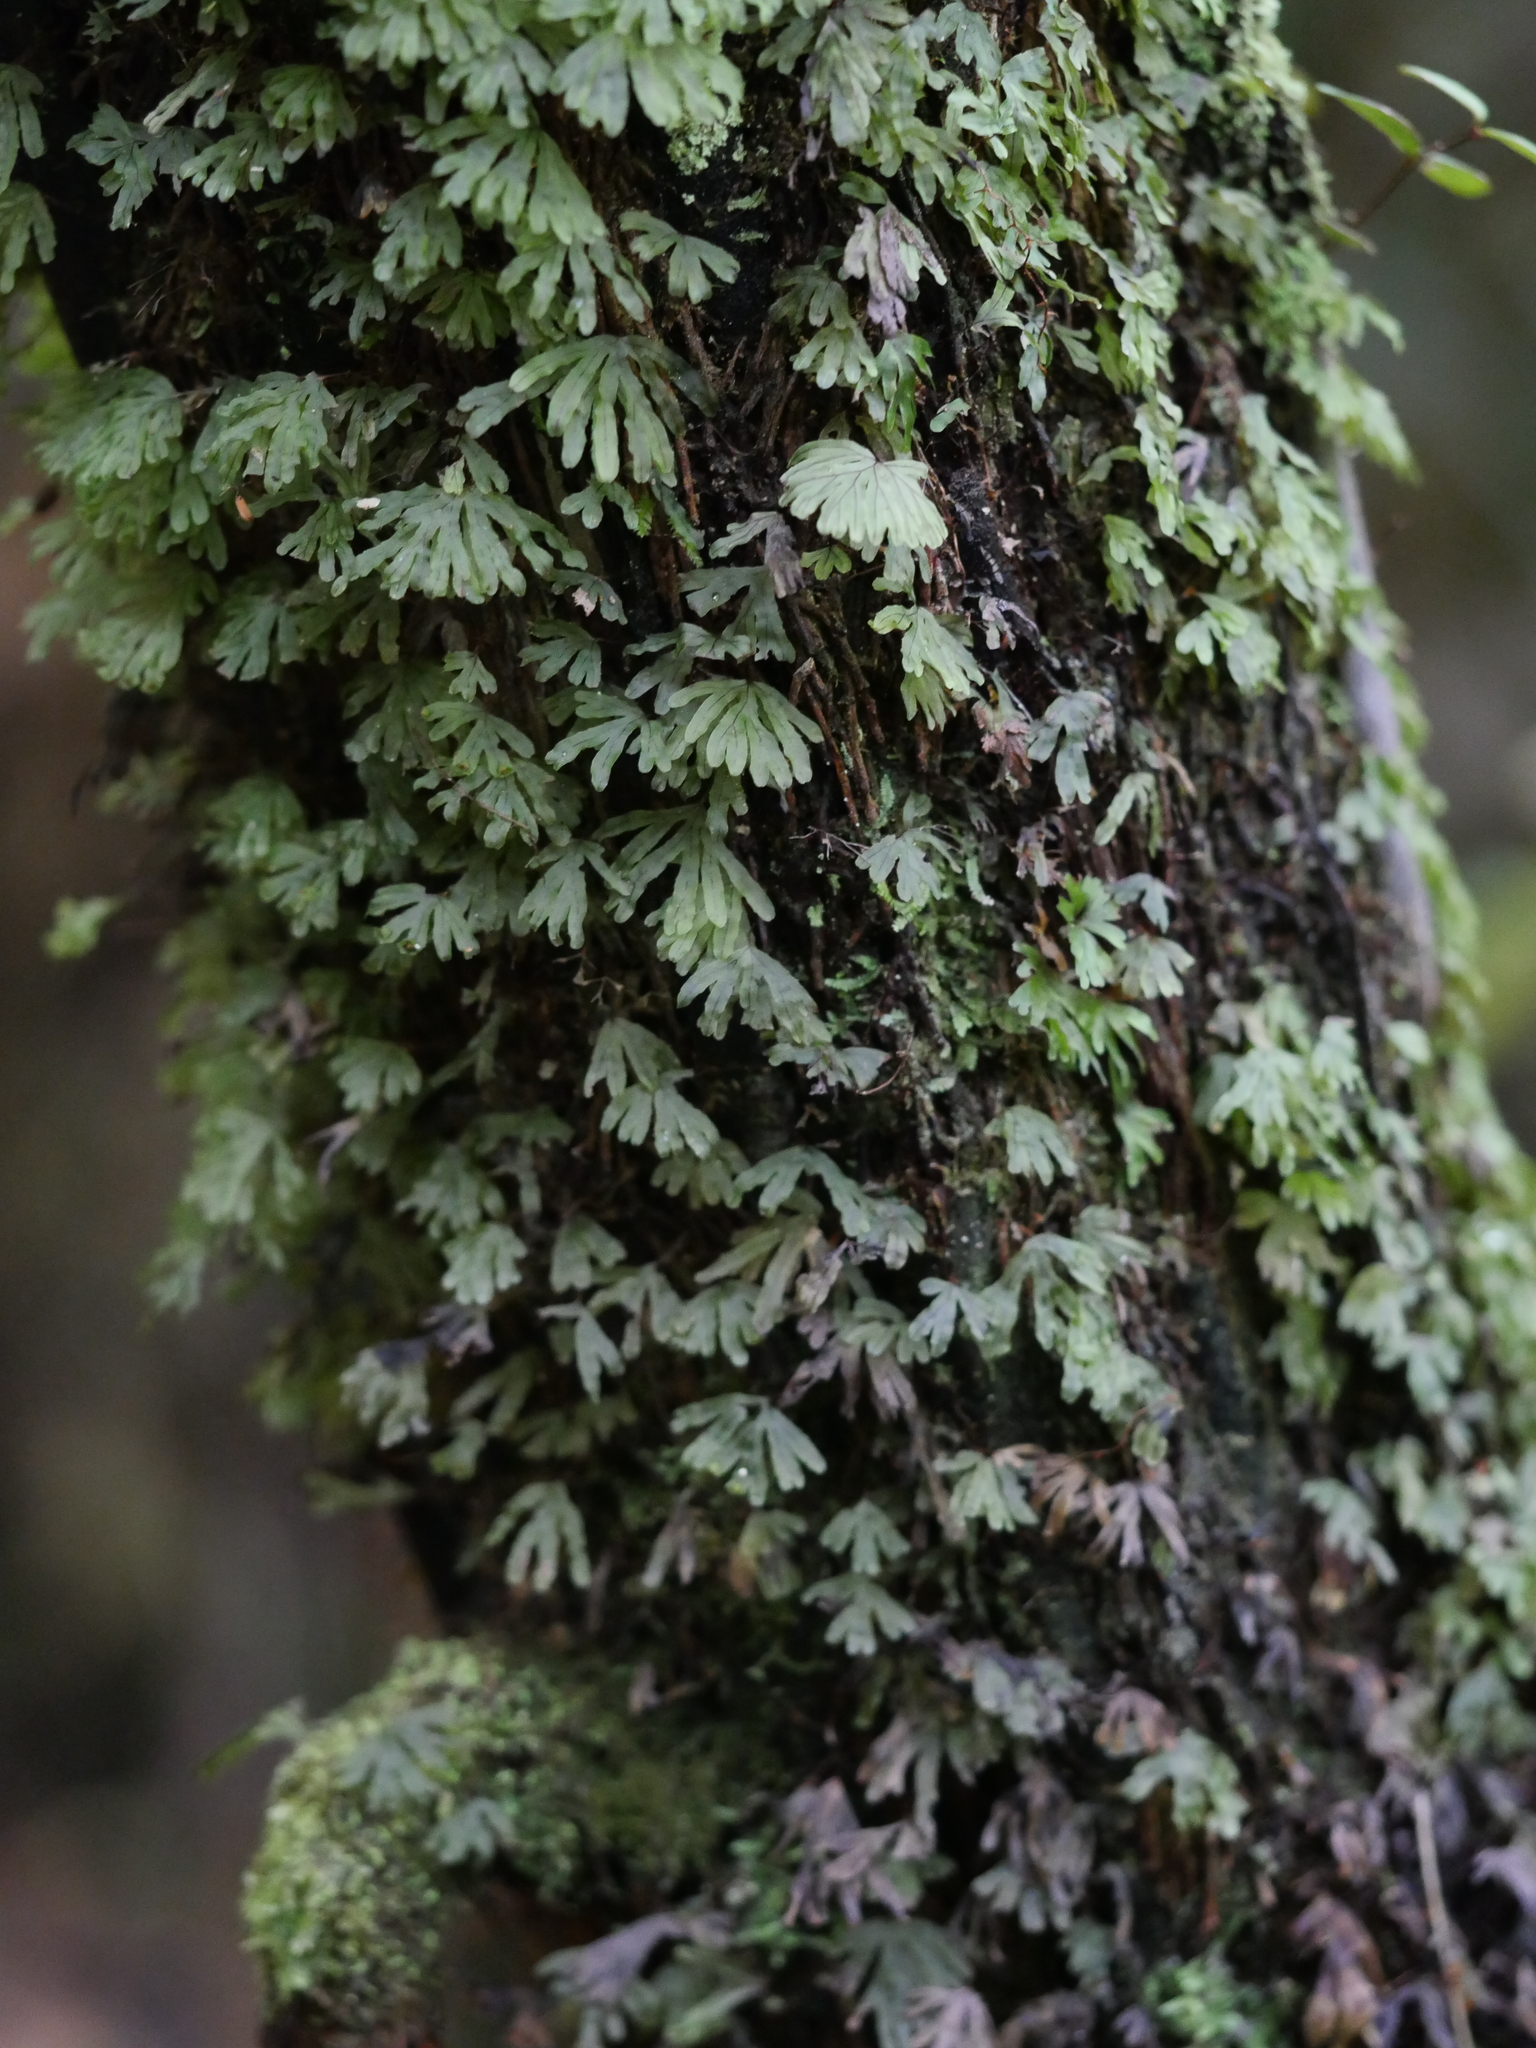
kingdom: Plantae
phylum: Marchantiophyta
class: Jungermanniopsida
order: Pallaviciniales
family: Pallaviciniaceae
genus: Symphyogyna
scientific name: Symphyogyna hymenophyllum
